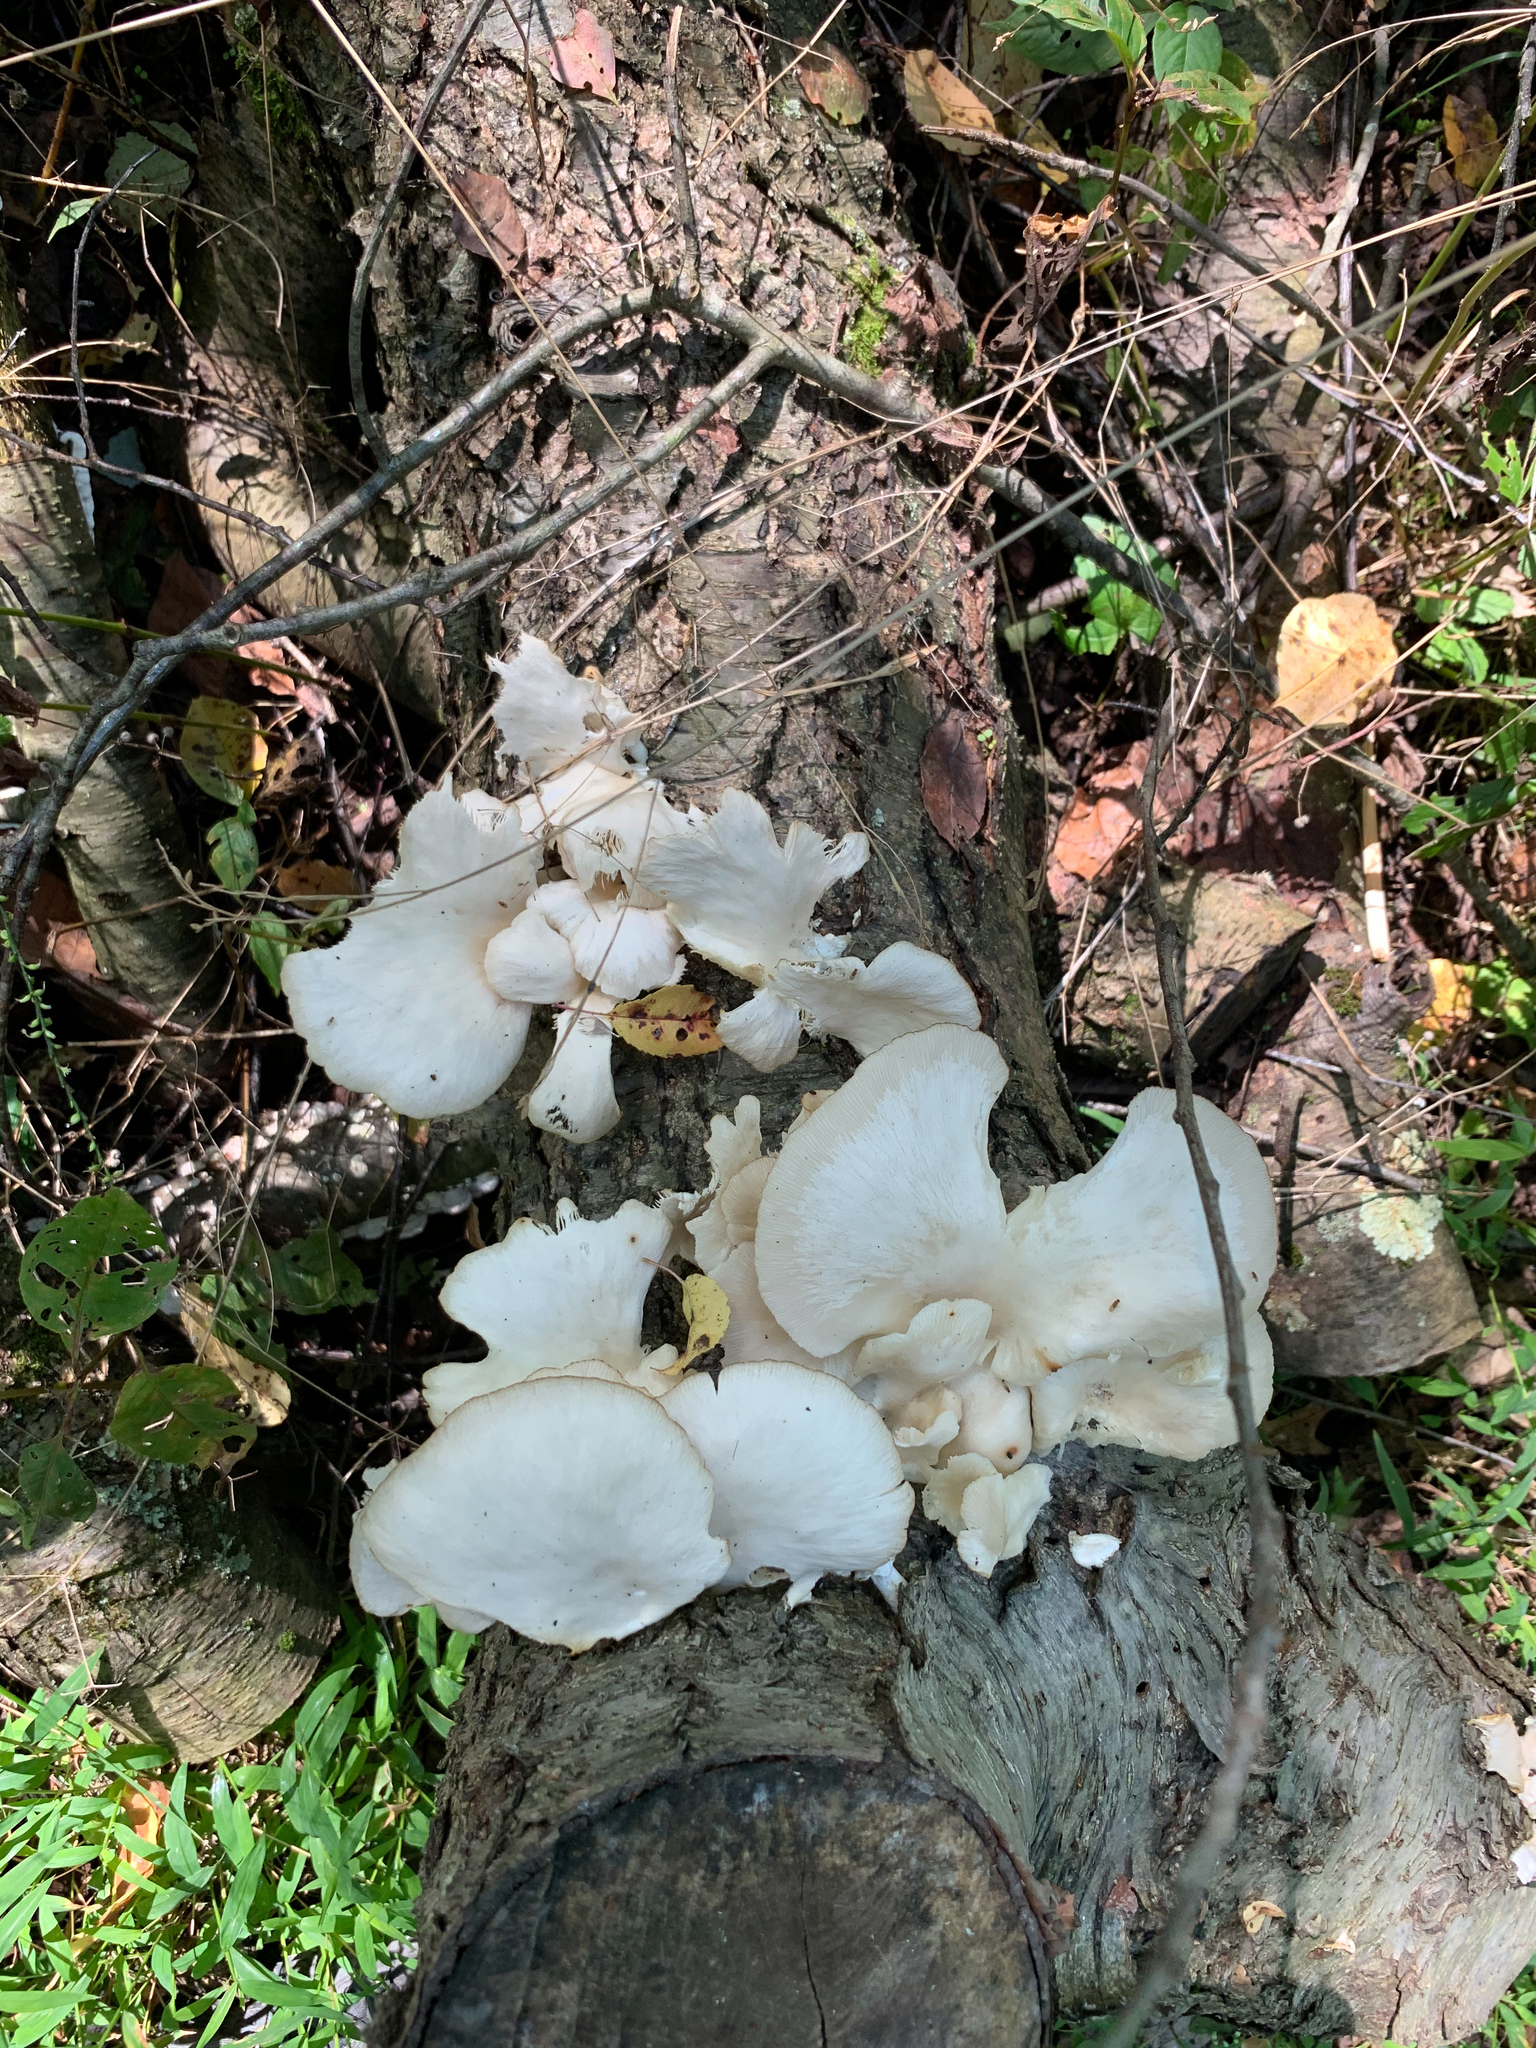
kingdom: Fungi
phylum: Basidiomycota
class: Agaricomycetes
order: Agaricales
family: Pleurotaceae
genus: Pleurotus
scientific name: Pleurotus pulmonarius
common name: Pale oyster
